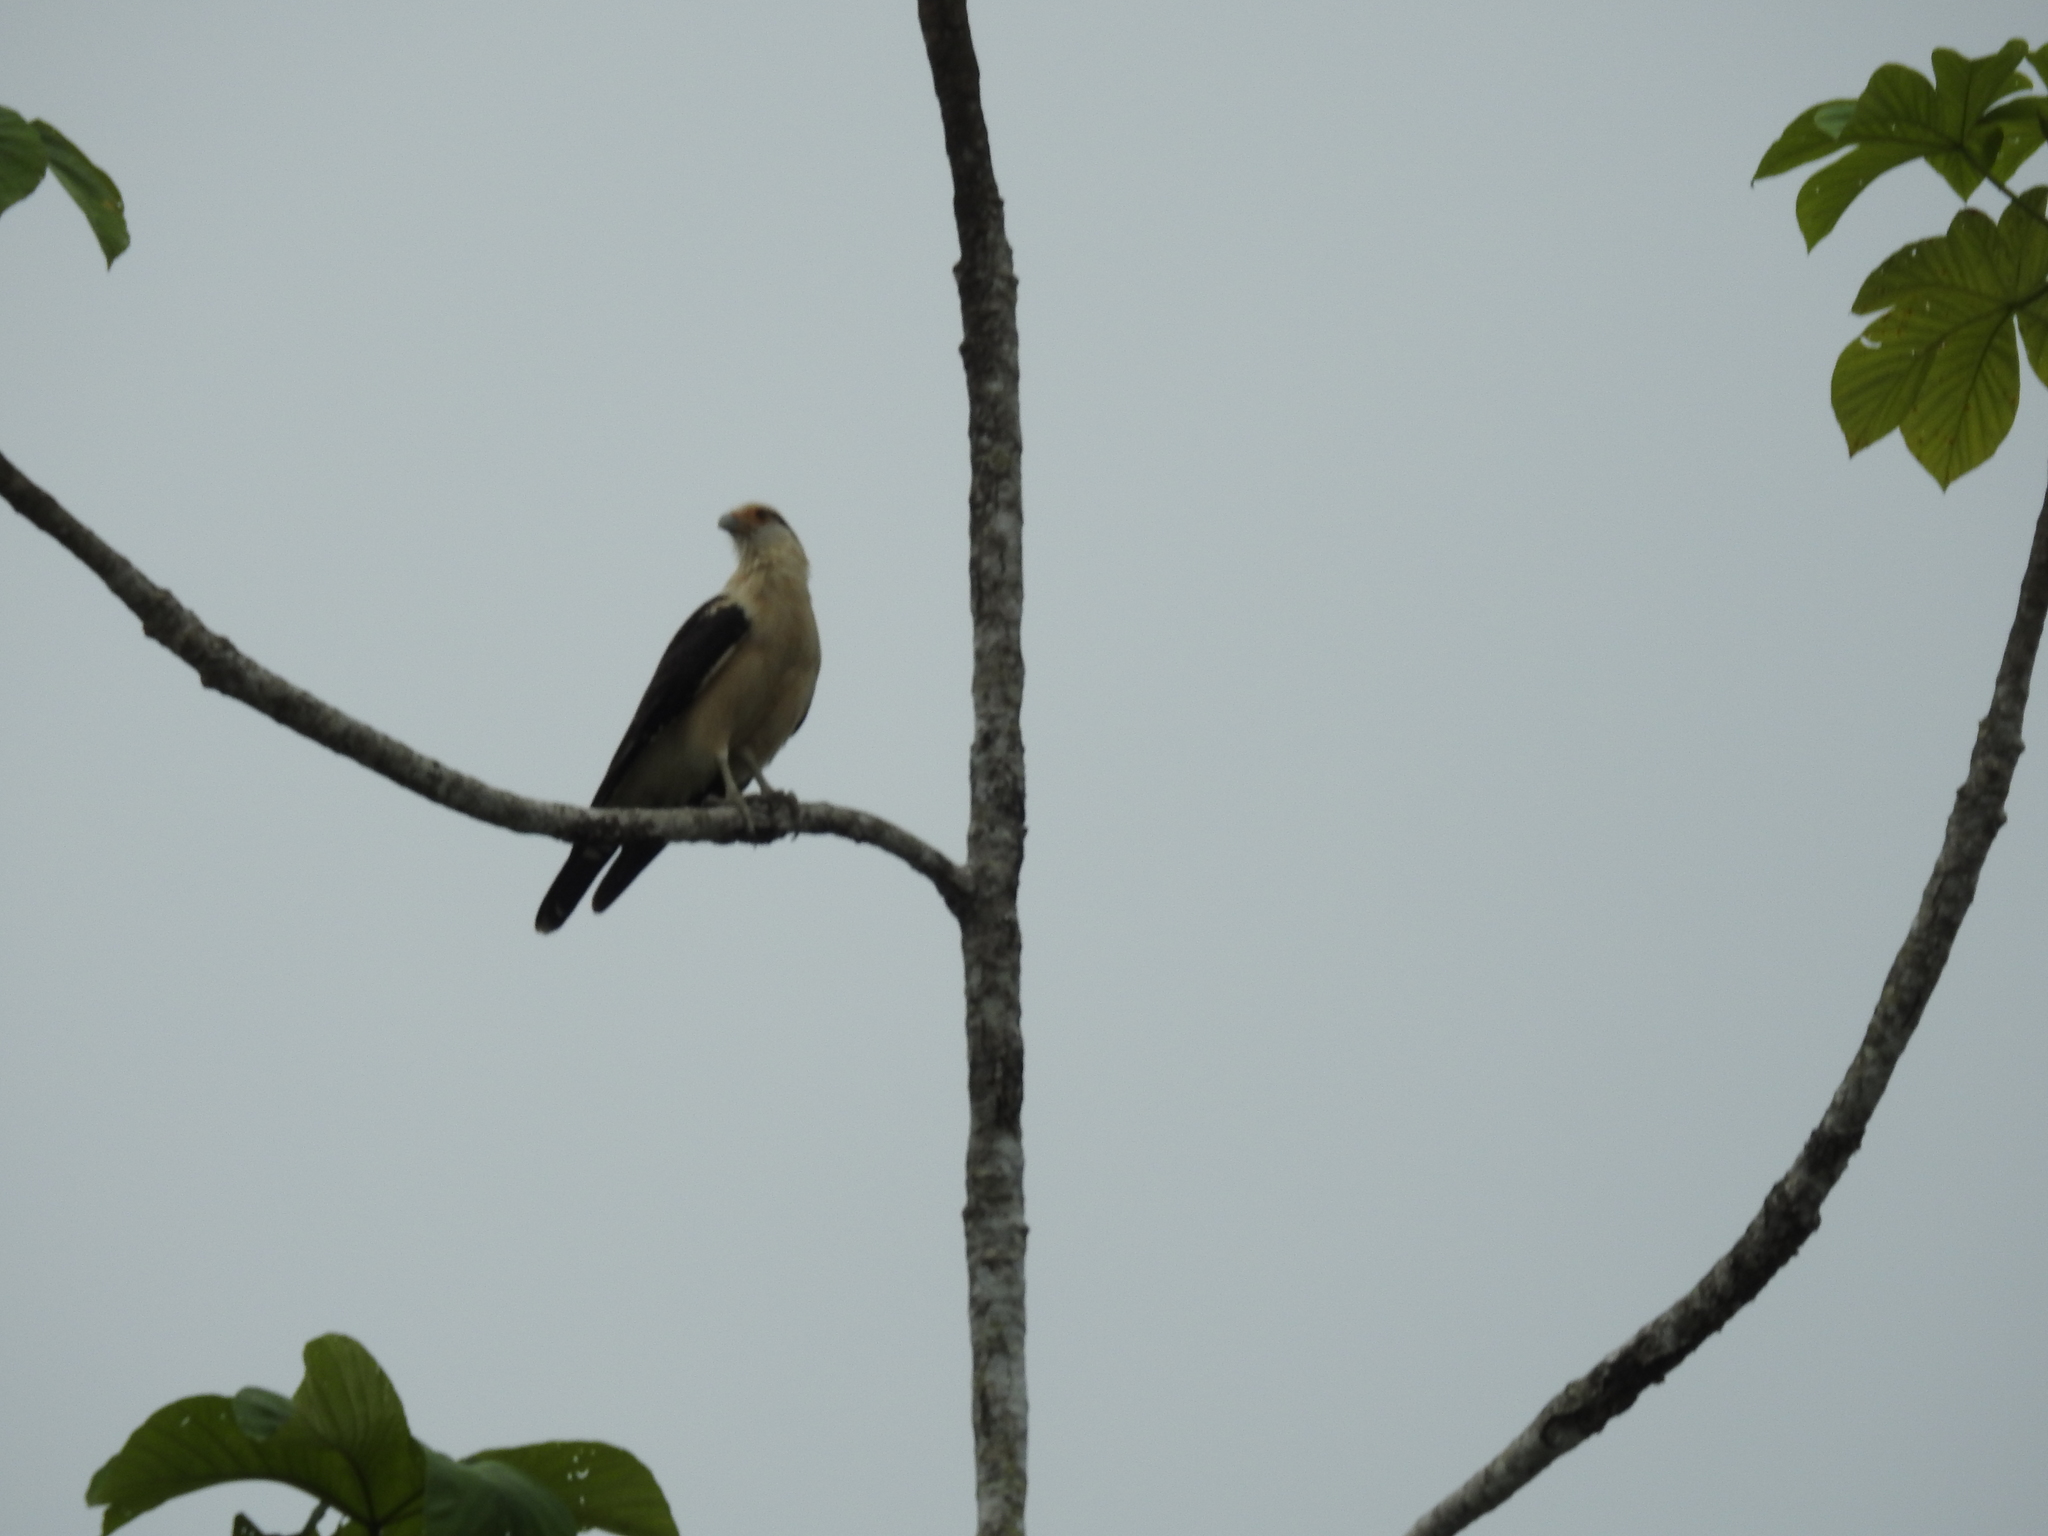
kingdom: Animalia
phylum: Chordata
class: Aves
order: Falconiformes
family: Falconidae
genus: Daptrius
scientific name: Daptrius
